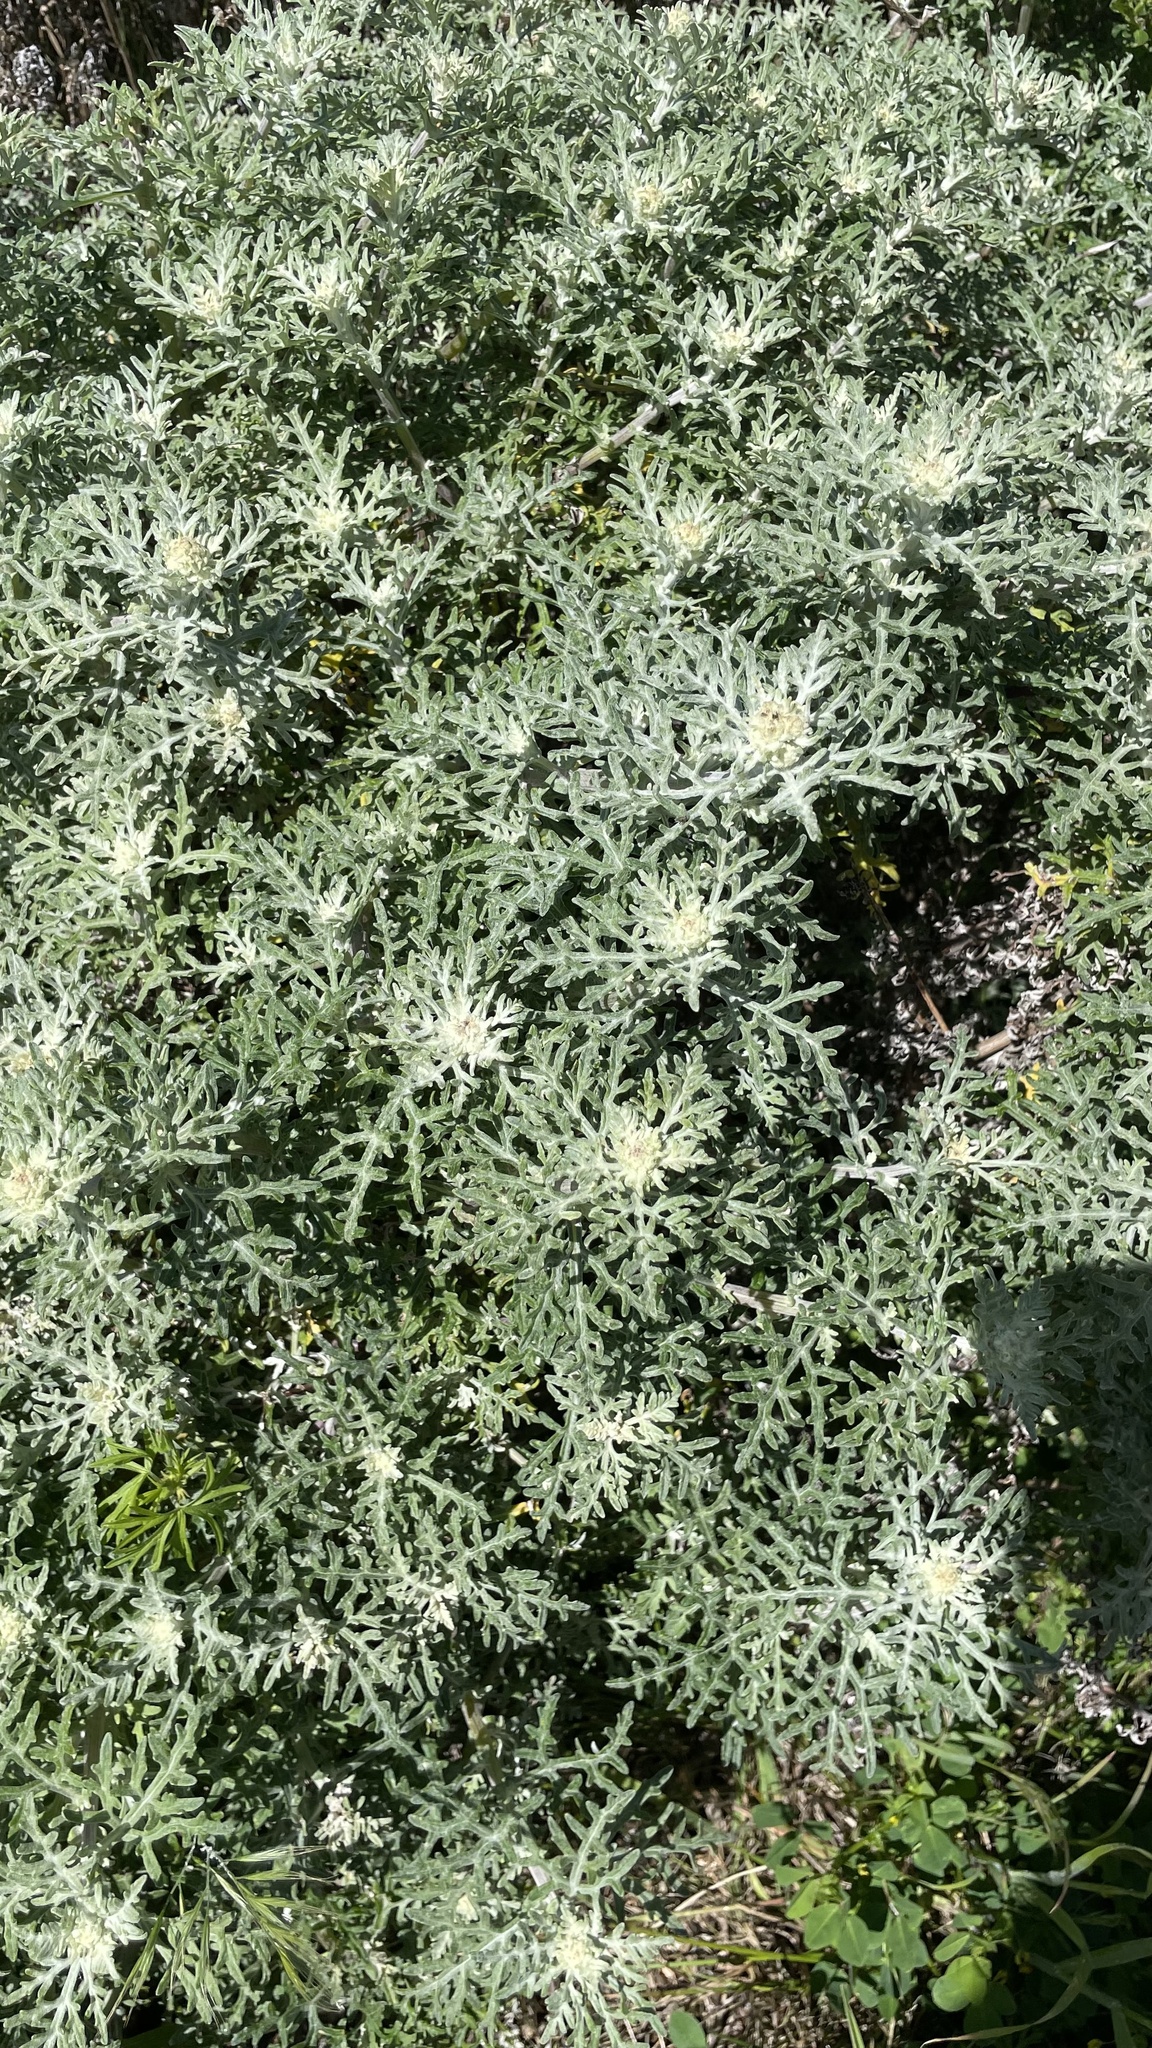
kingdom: Plantae
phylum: Tracheophyta
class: Magnoliopsida
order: Asterales
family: Asteraceae
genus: Eriophyllum
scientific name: Eriophyllum staechadifolium
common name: Lizardtail
